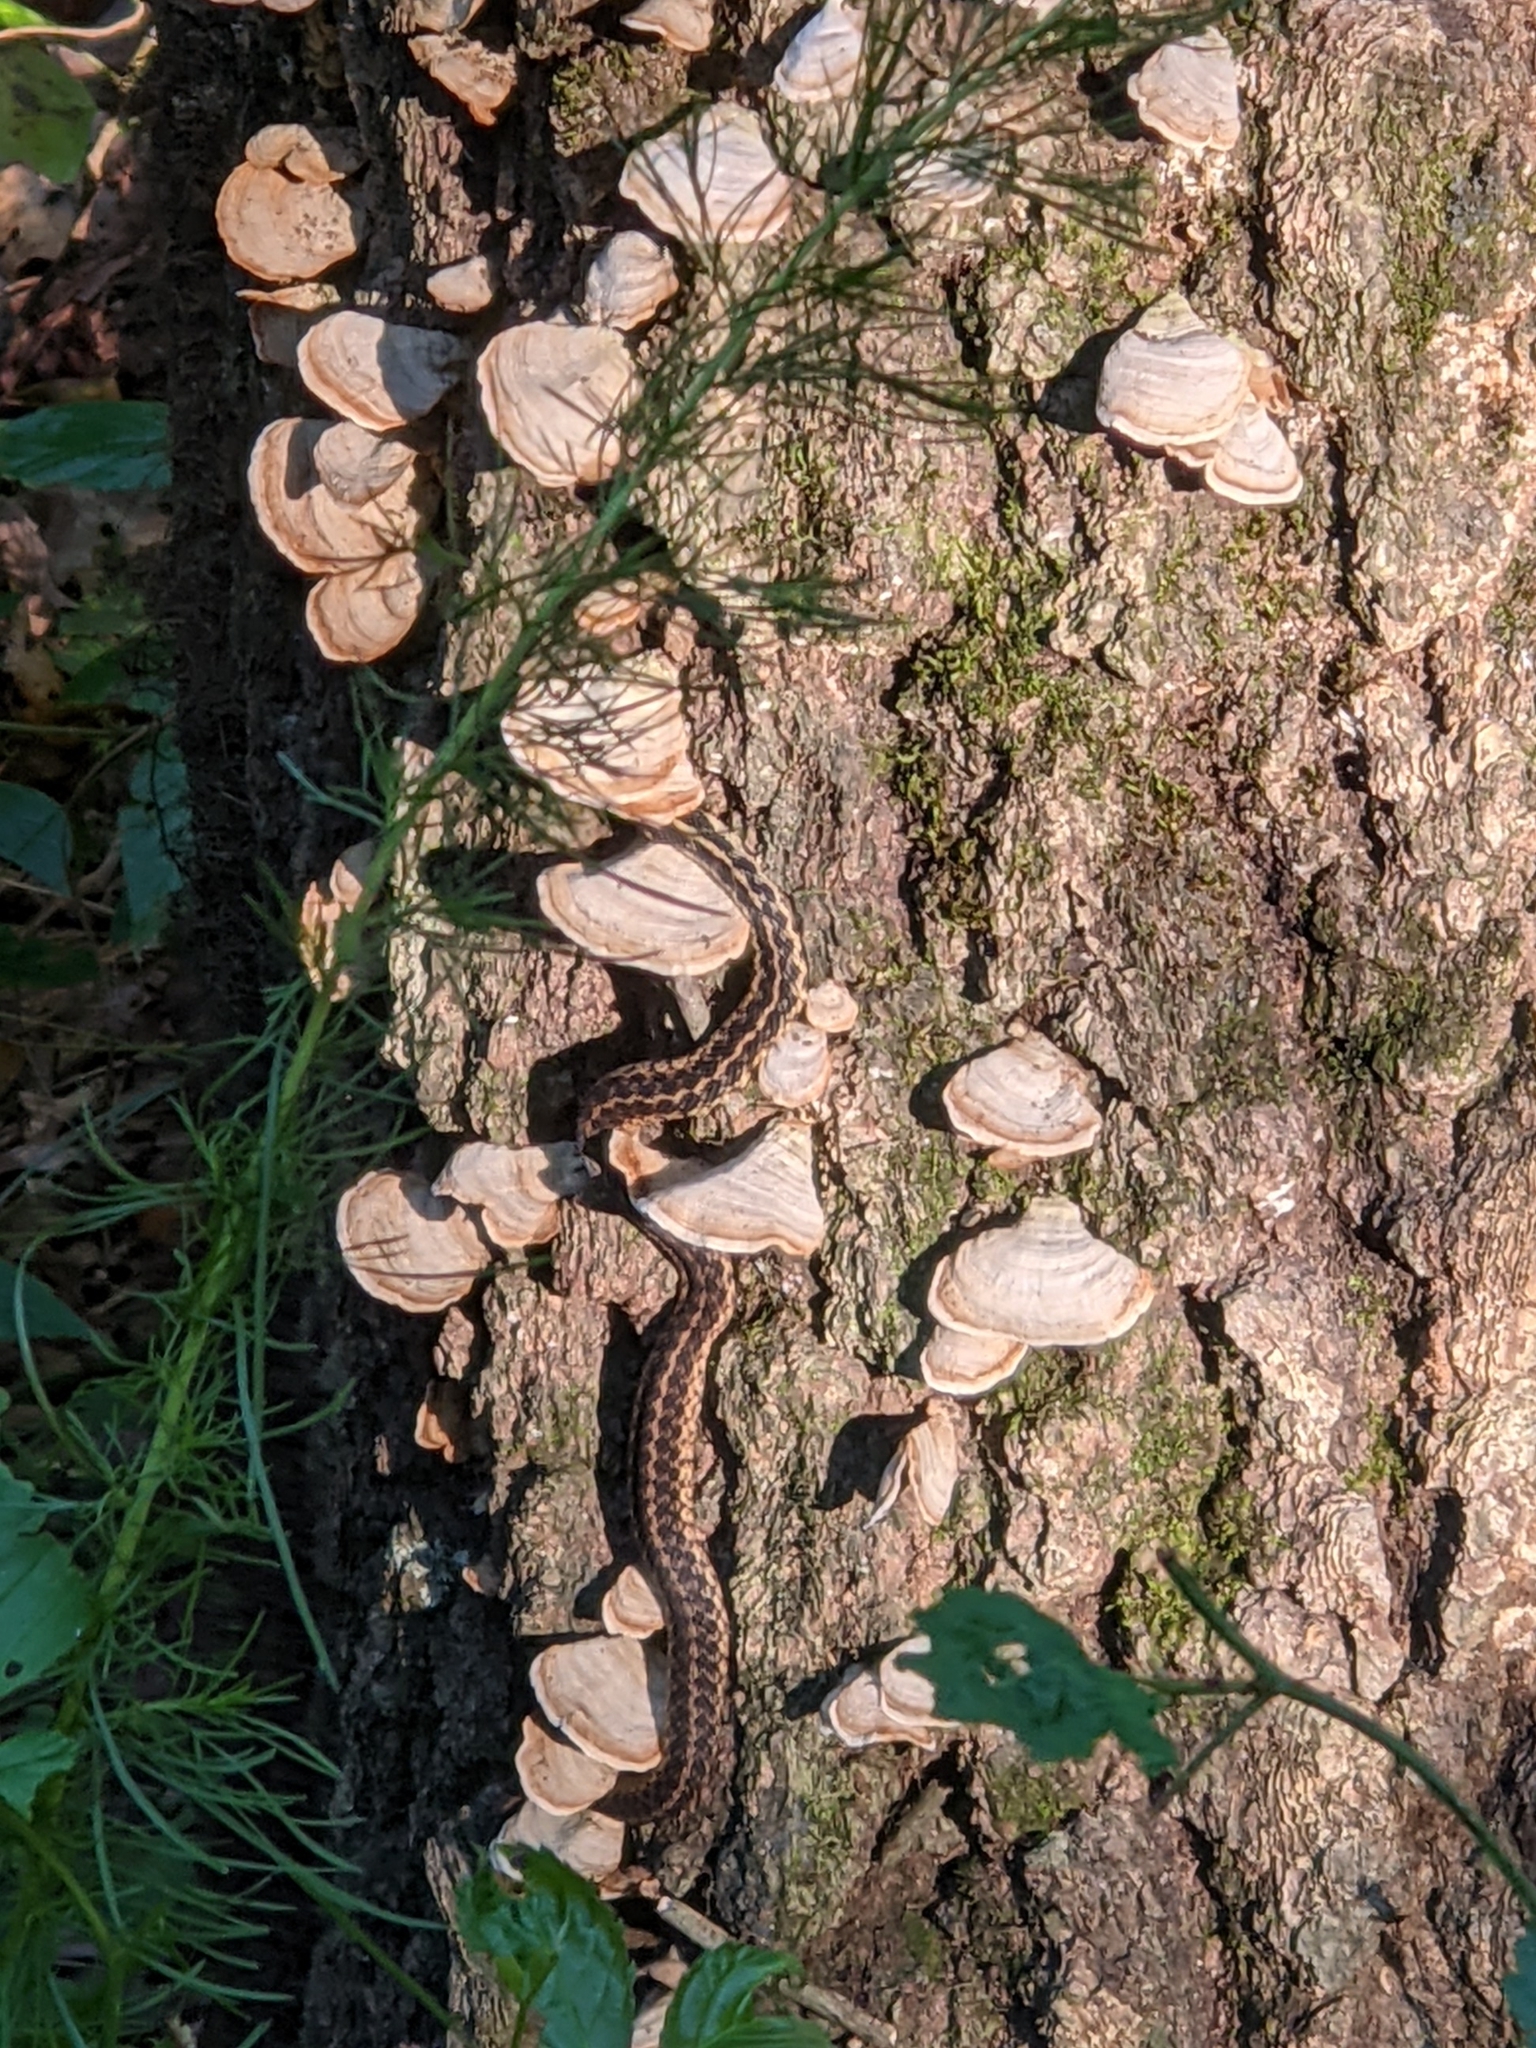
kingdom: Animalia
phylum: Chordata
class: Squamata
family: Colubridae
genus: Thamnophis
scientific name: Thamnophis sirtalis
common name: Common garter snake
